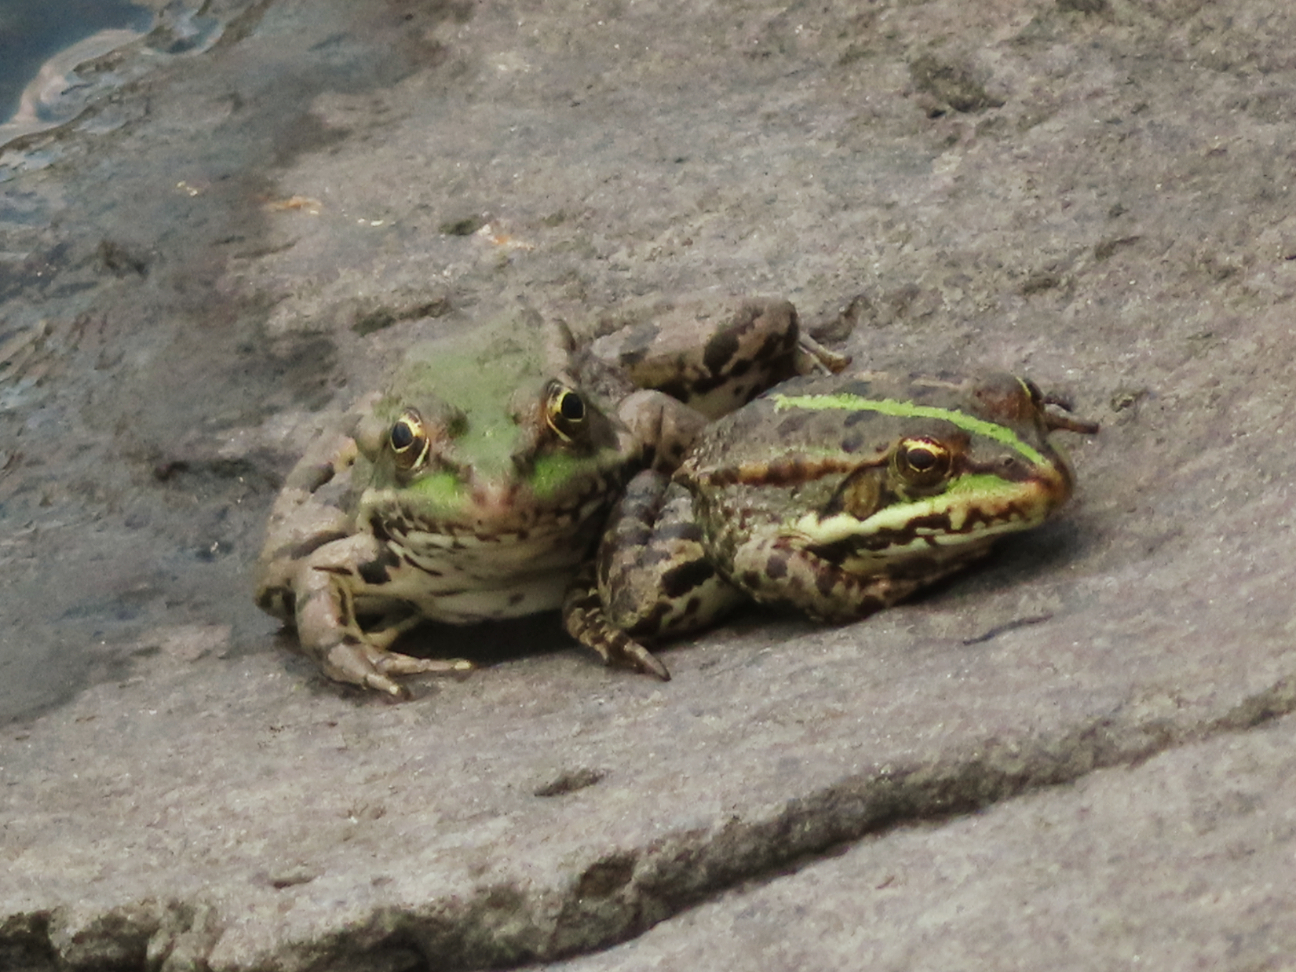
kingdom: Animalia
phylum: Chordata
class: Amphibia
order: Anura
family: Ranidae
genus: Pelophylax
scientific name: Pelophylax ridibundus
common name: Marsh frog
